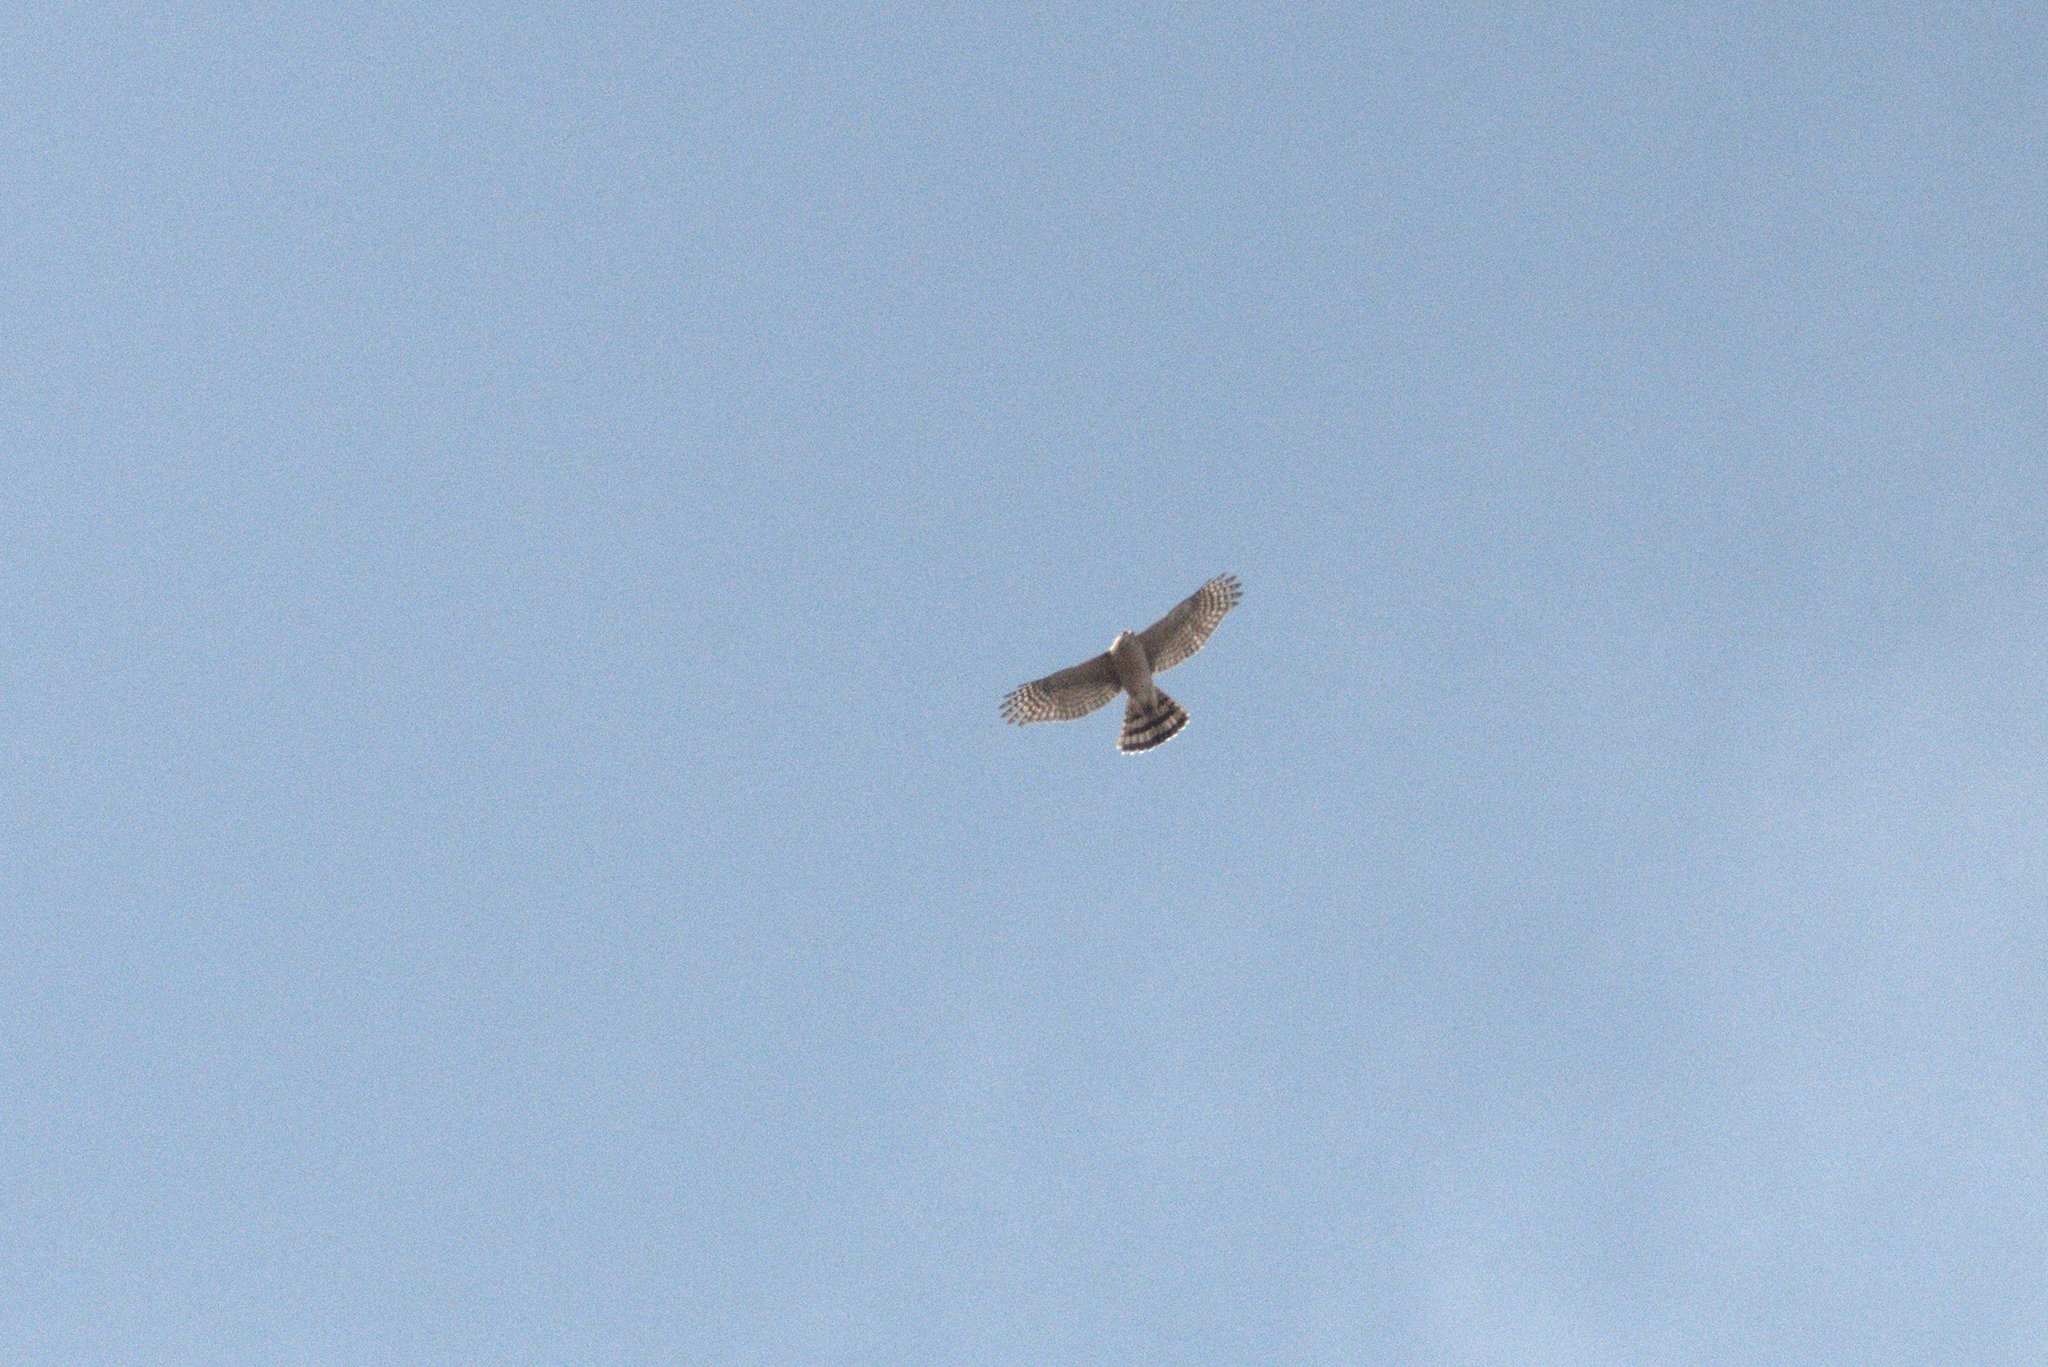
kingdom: Animalia
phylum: Chordata
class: Aves
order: Accipitriformes
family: Accipitridae
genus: Accipiter
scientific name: Accipiter cooperii
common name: Cooper's hawk
